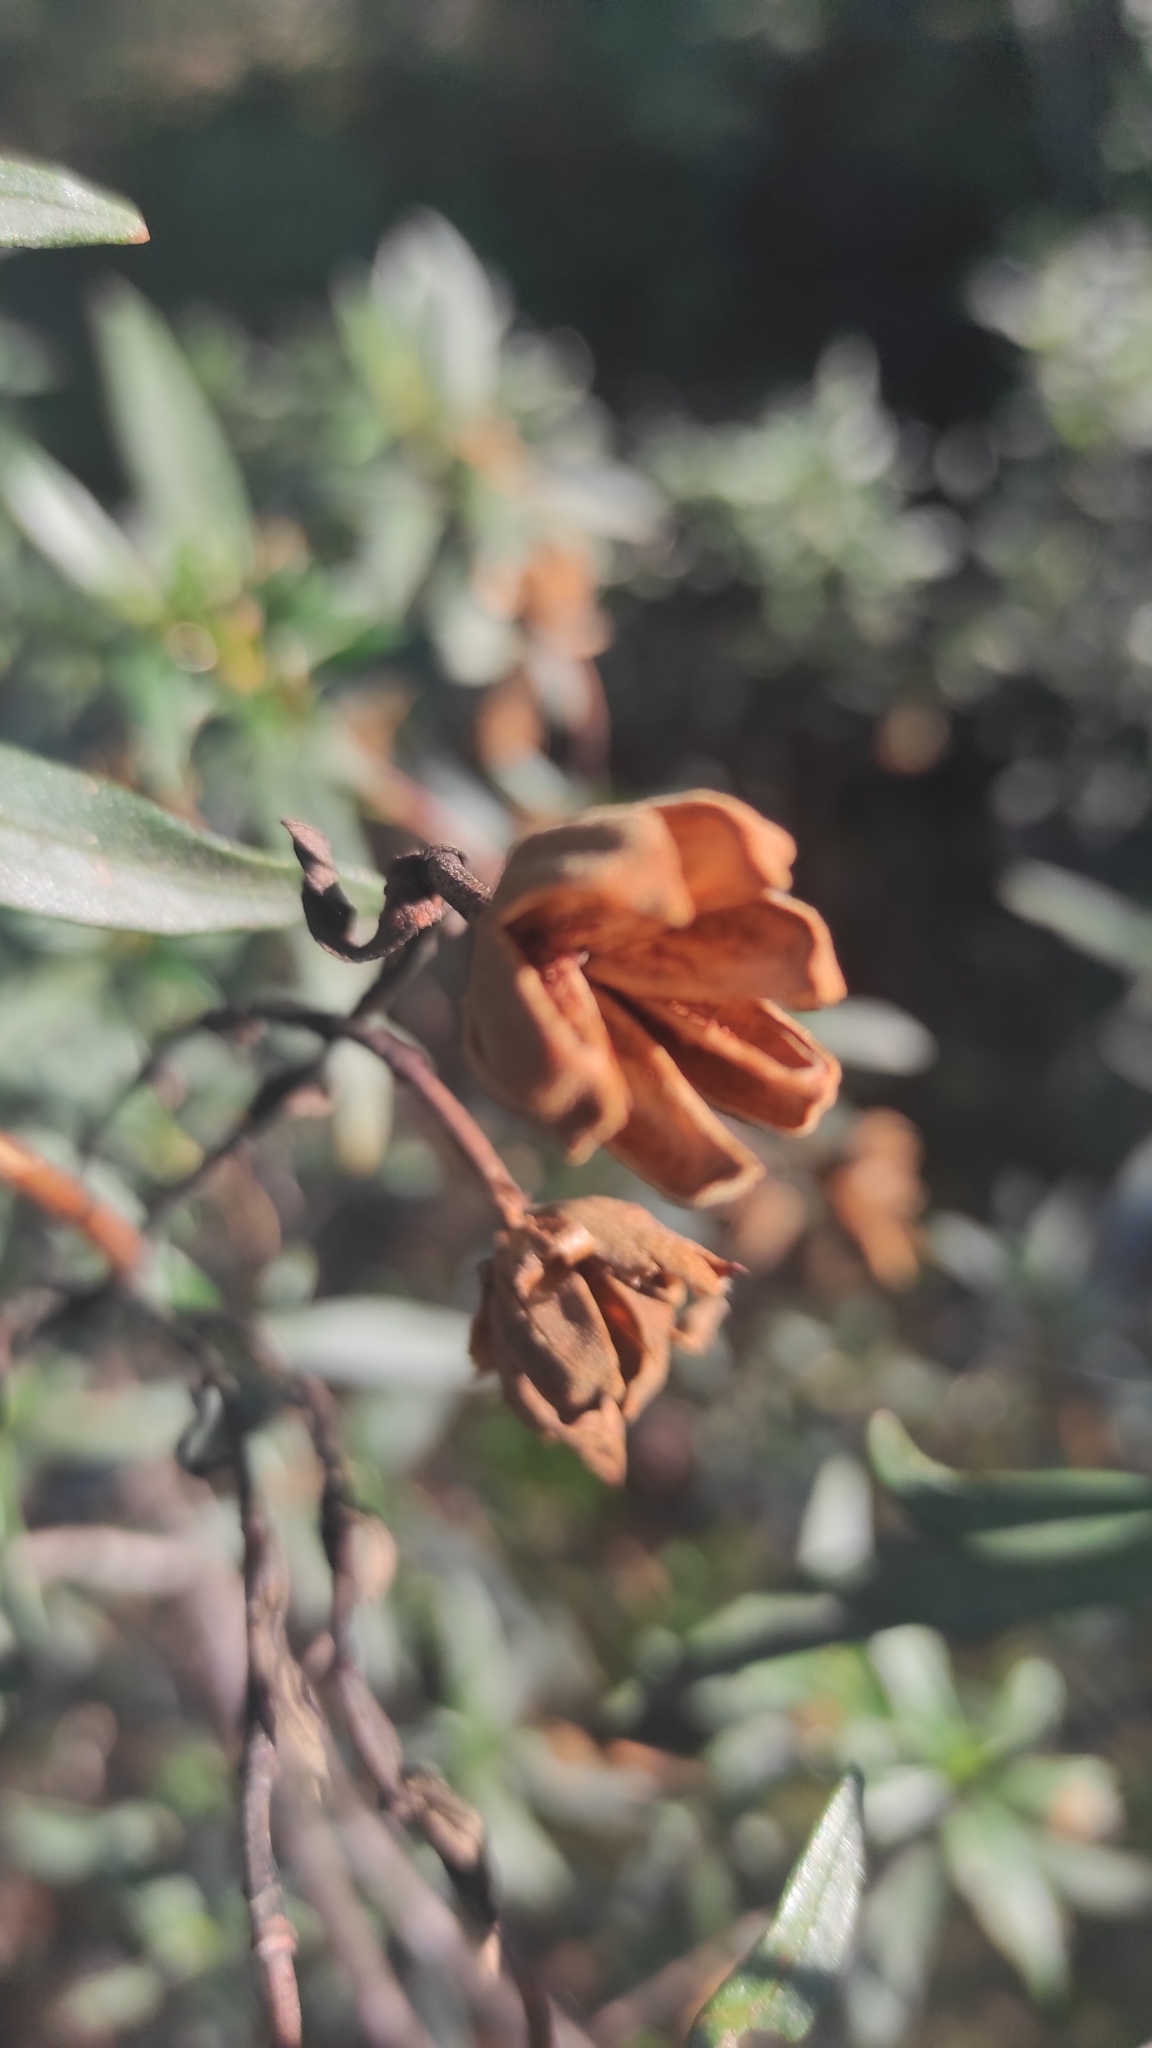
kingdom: Plantae
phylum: Tracheophyta
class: Magnoliopsida
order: Malvales
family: Cistaceae
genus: Cistus
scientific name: Cistus ladanifer
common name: Common gum cistus
